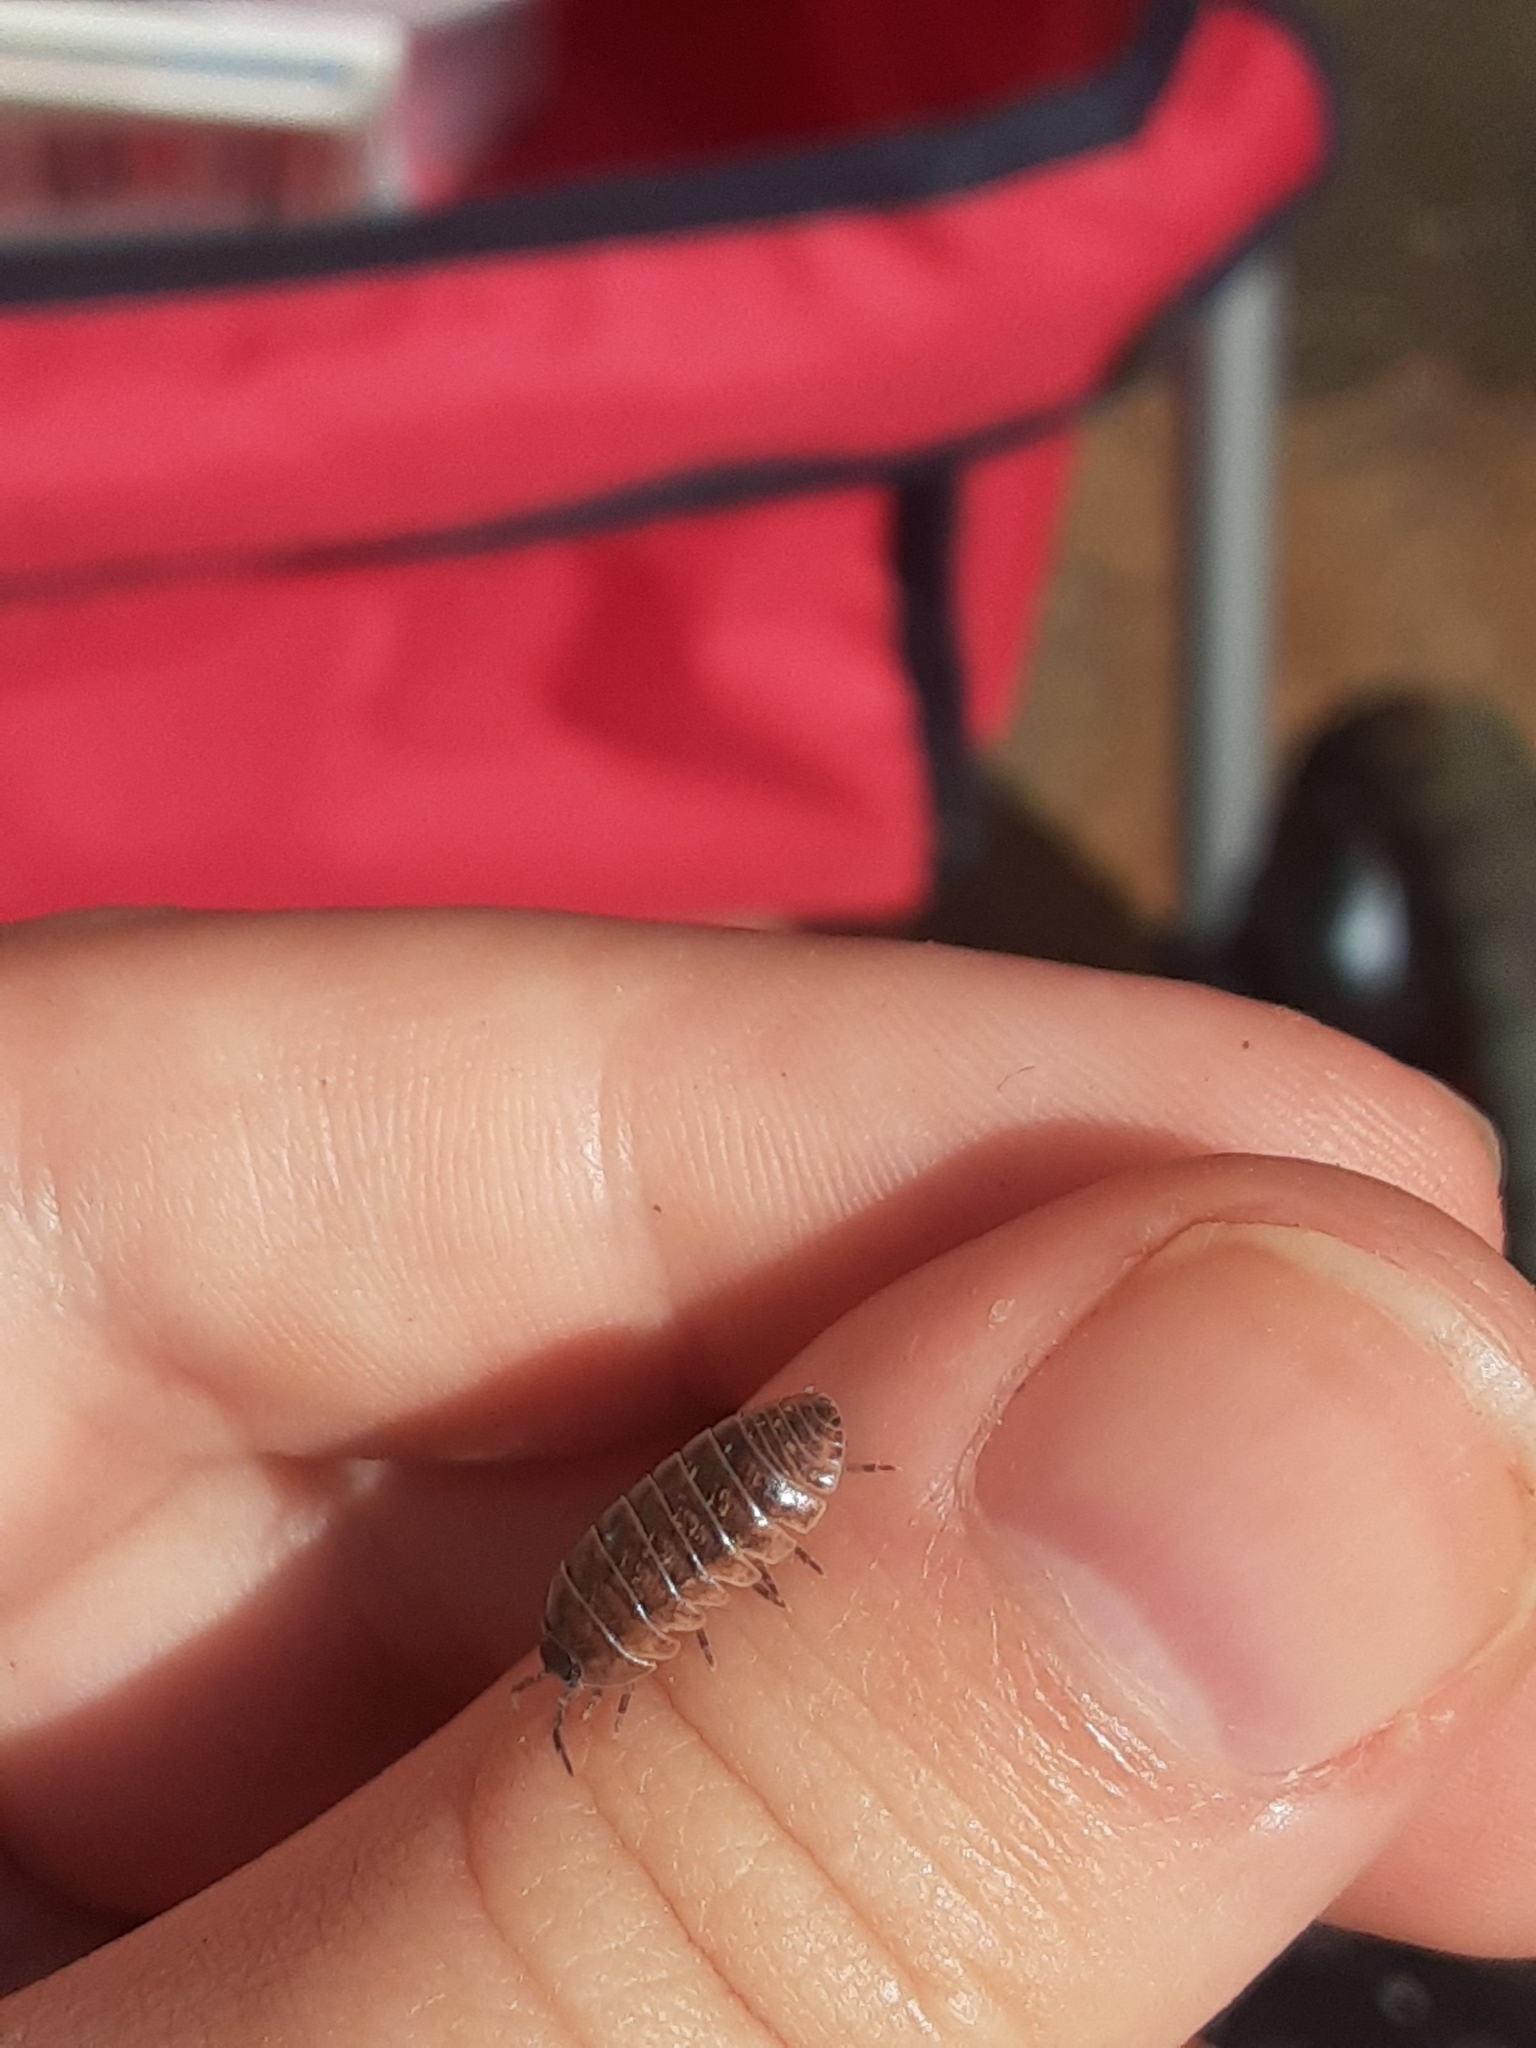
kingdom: Animalia
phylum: Arthropoda
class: Malacostraca
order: Isopoda
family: Armadillidiidae
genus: Armadillidium
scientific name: Armadillidium vulgare
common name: Common pill woodlouse
